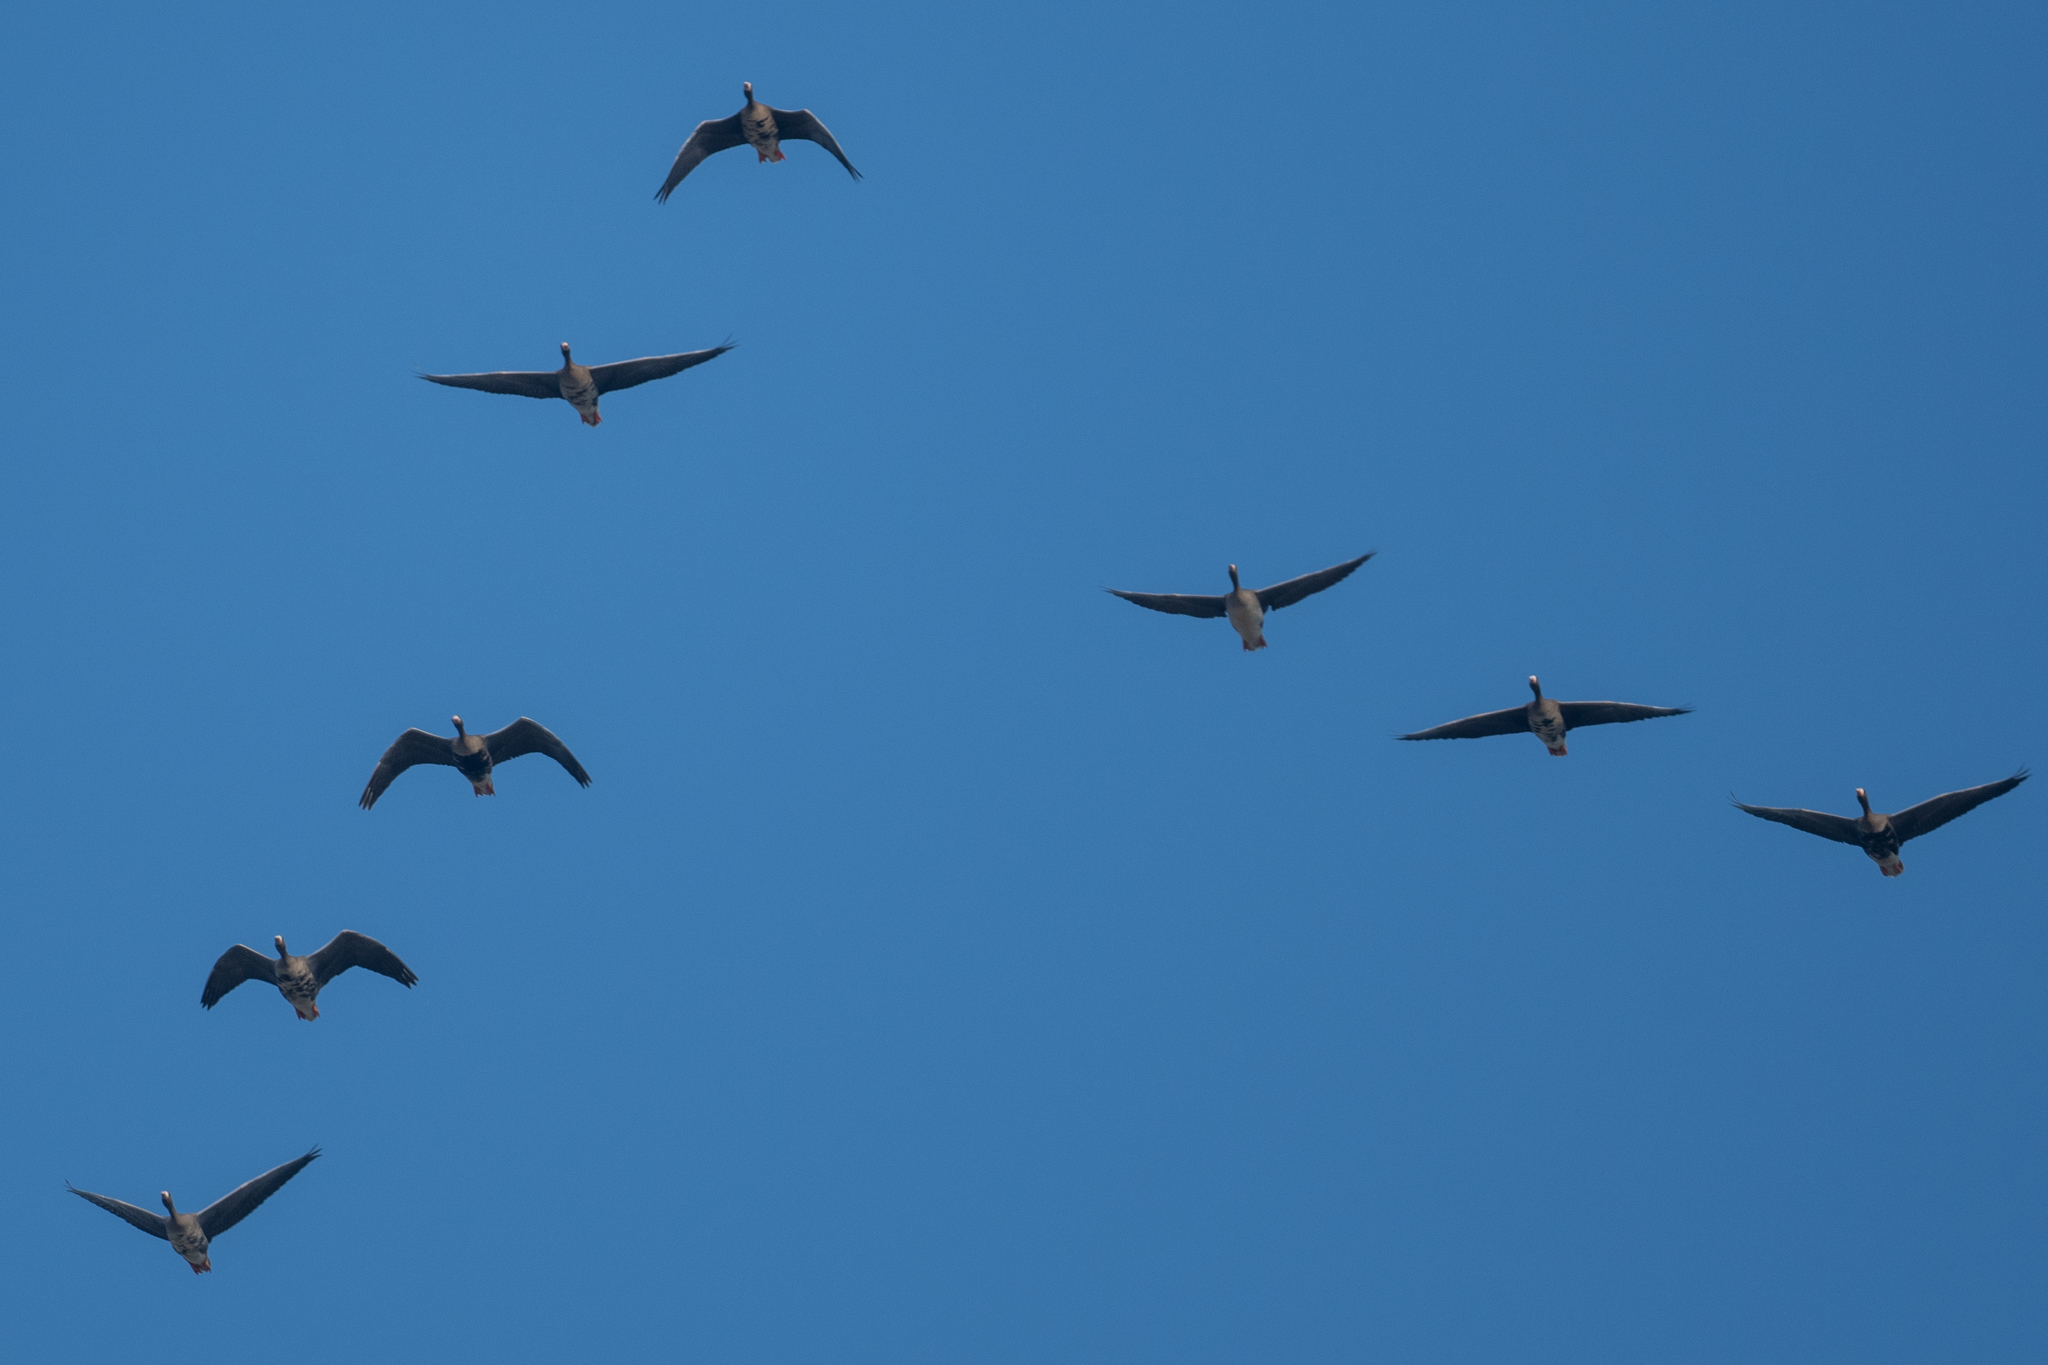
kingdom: Animalia
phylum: Chordata
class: Aves
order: Anseriformes
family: Anatidae
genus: Anser
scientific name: Anser albifrons
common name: Greater white-fronted goose
